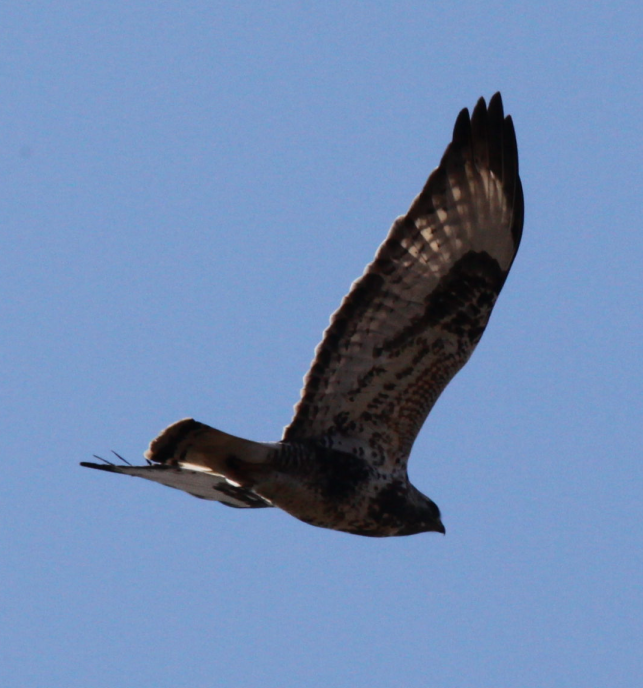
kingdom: Animalia
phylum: Chordata
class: Aves
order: Accipitriformes
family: Accipitridae
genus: Buteo
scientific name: Buteo lagopus
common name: Rough-legged buzzard
